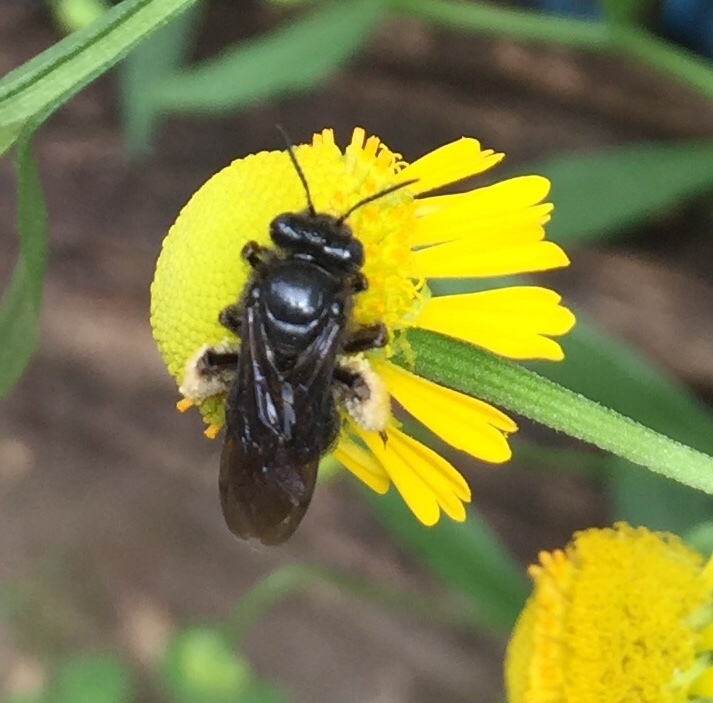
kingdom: Animalia
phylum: Arthropoda
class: Insecta
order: Hymenoptera
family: Apidae
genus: Melissodes
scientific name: Melissodes bimaculatus
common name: Two-spotted long-horned bee
